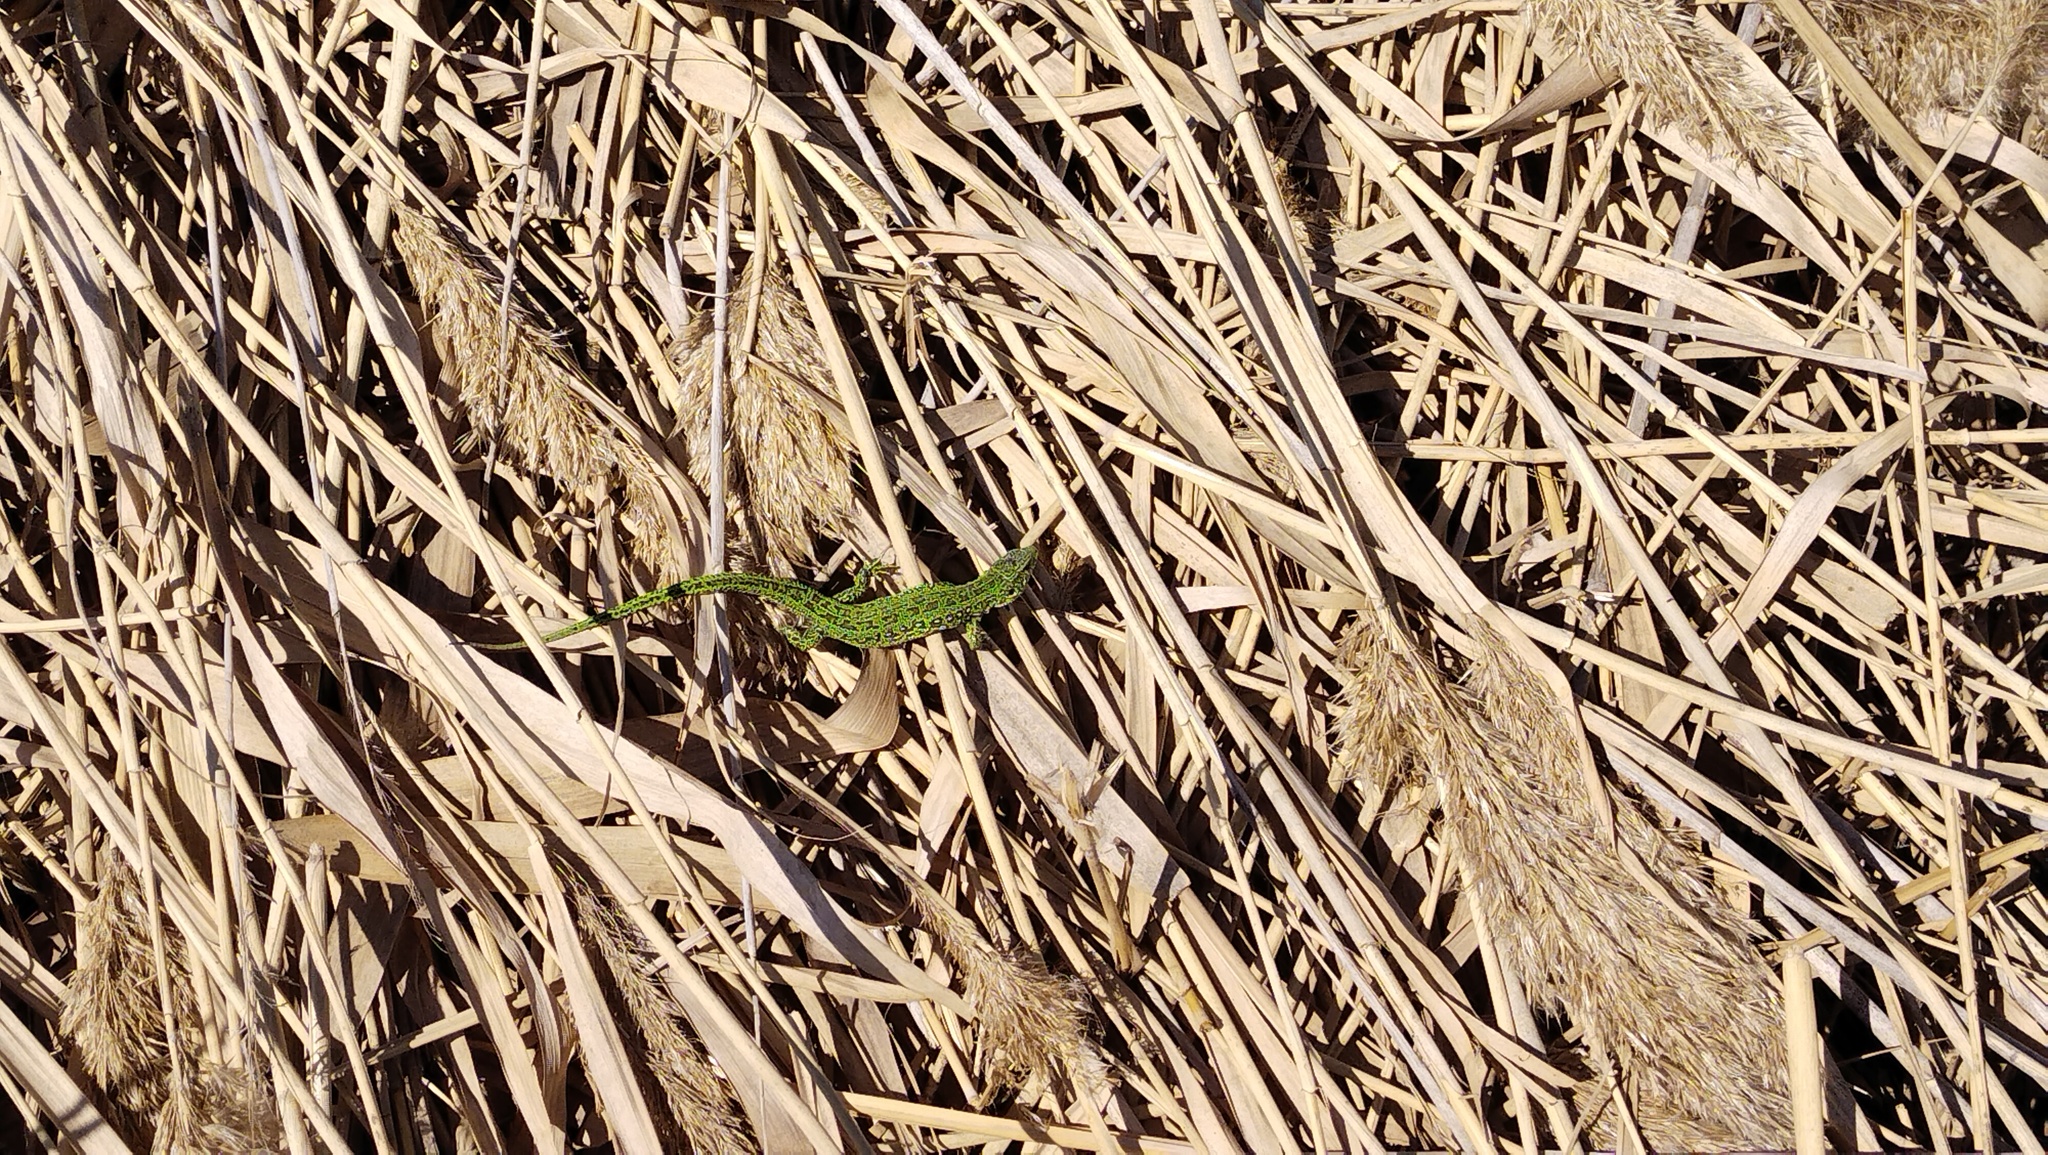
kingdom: Animalia
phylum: Chordata
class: Squamata
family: Lacertidae
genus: Lacerta
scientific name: Lacerta agilis
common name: Sand lizard
